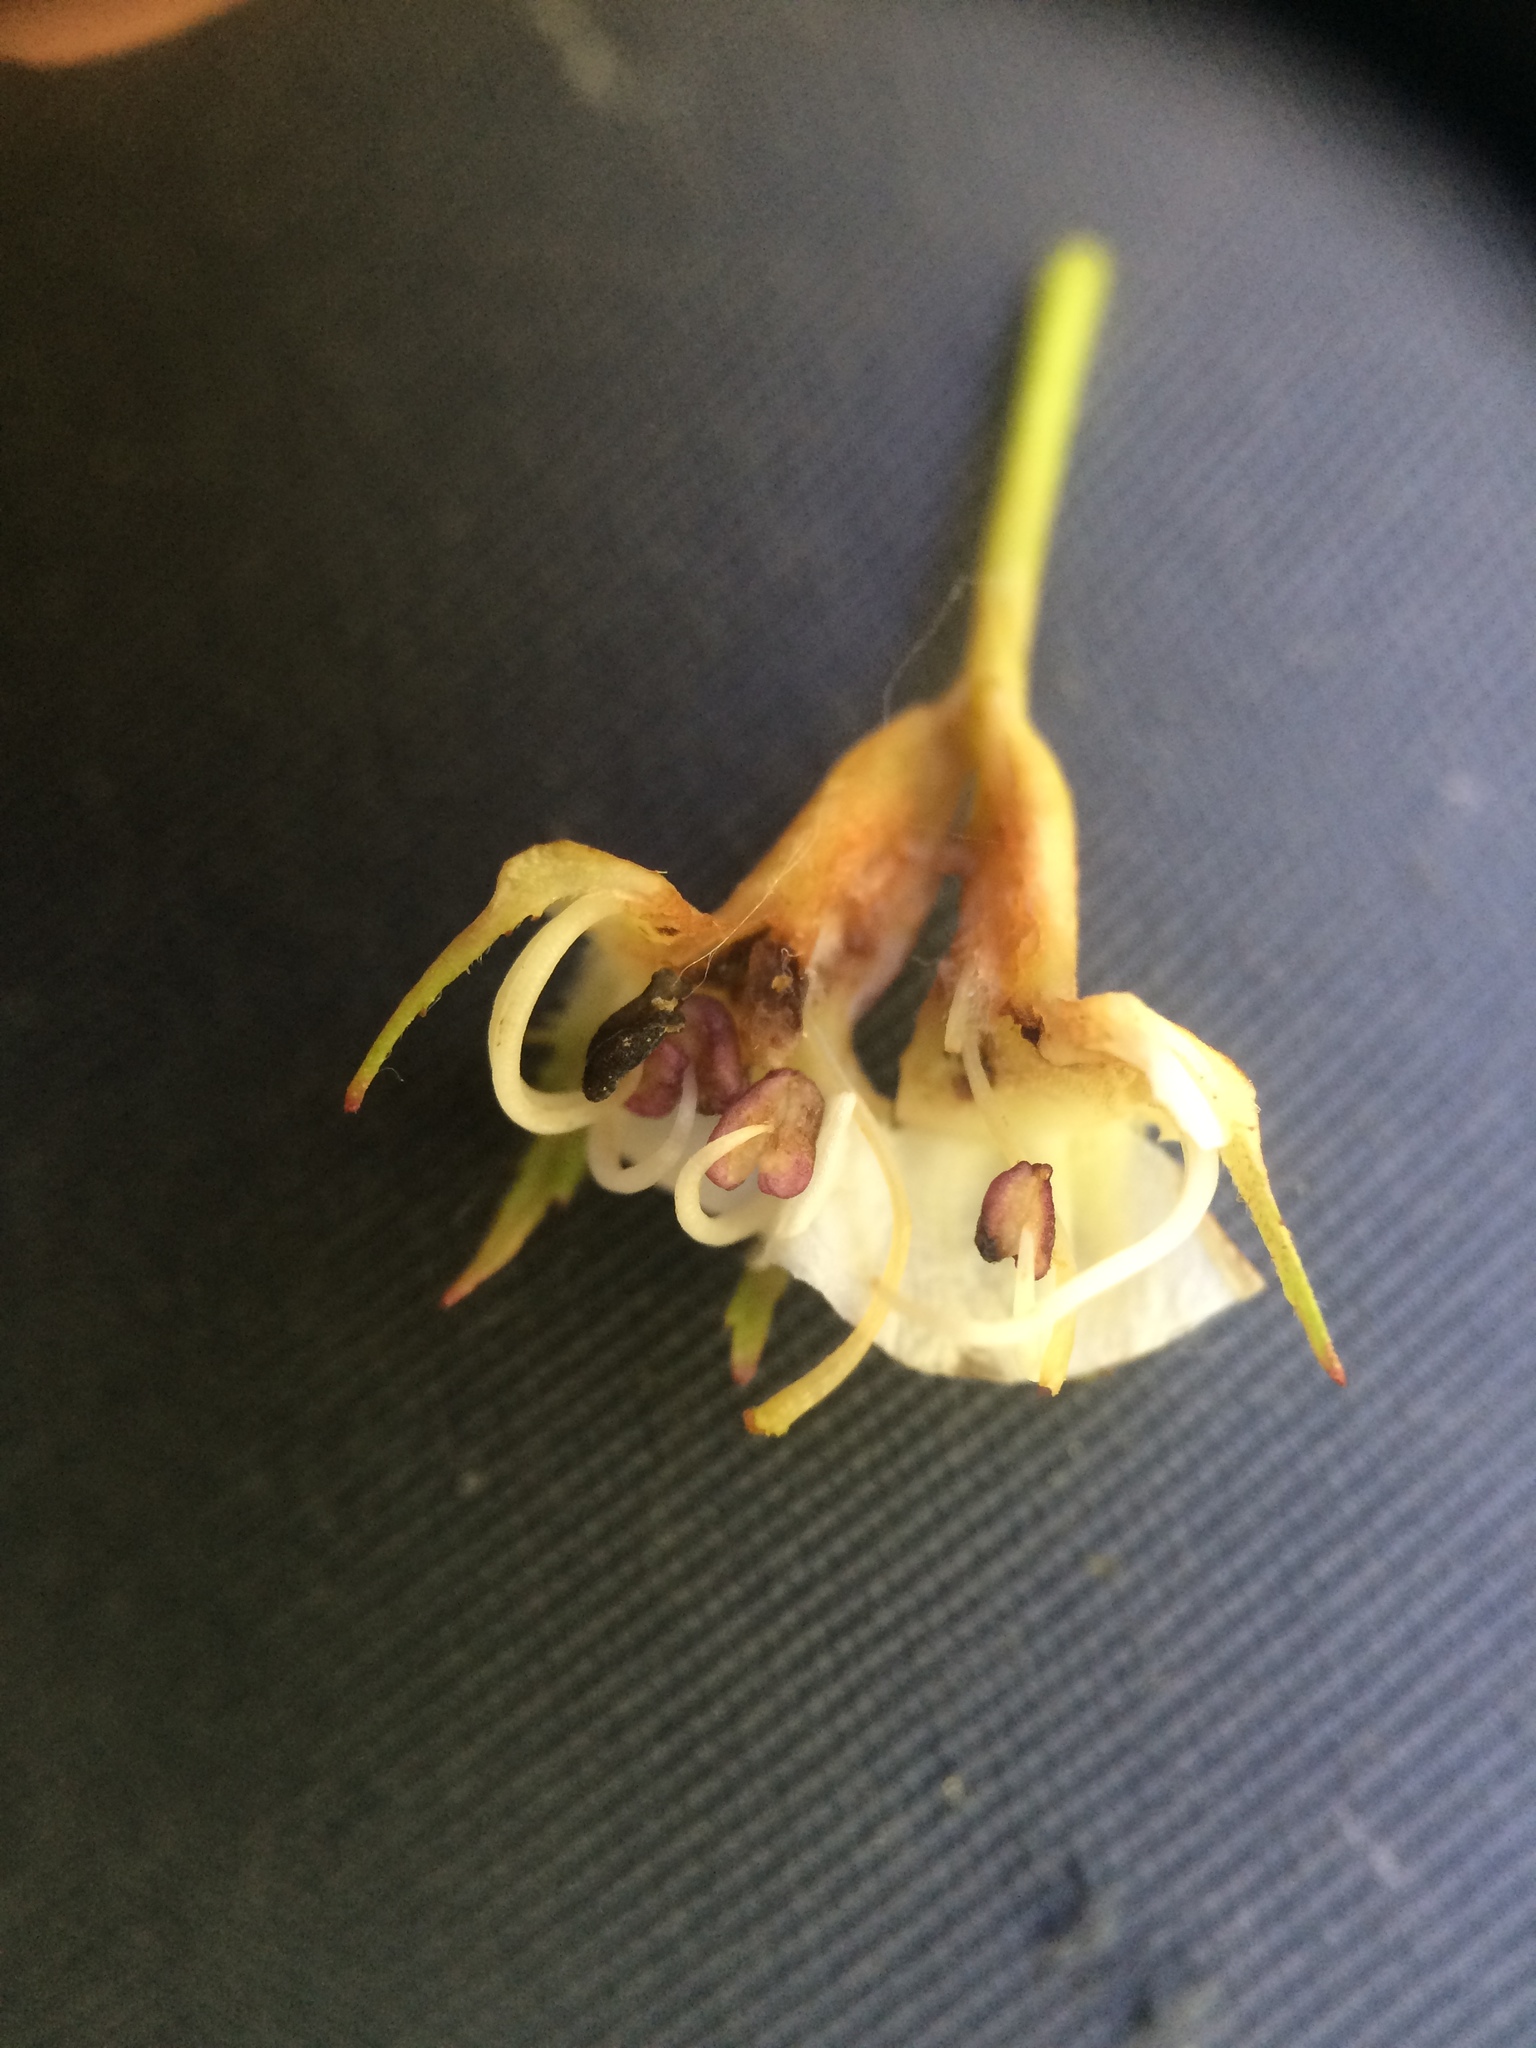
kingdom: Plantae
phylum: Tracheophyta
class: Magnoliopsida
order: Rosales
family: Rosaceae
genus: Crataegus
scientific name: Crataegus holmesiana
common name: Holmes' hawthorn
